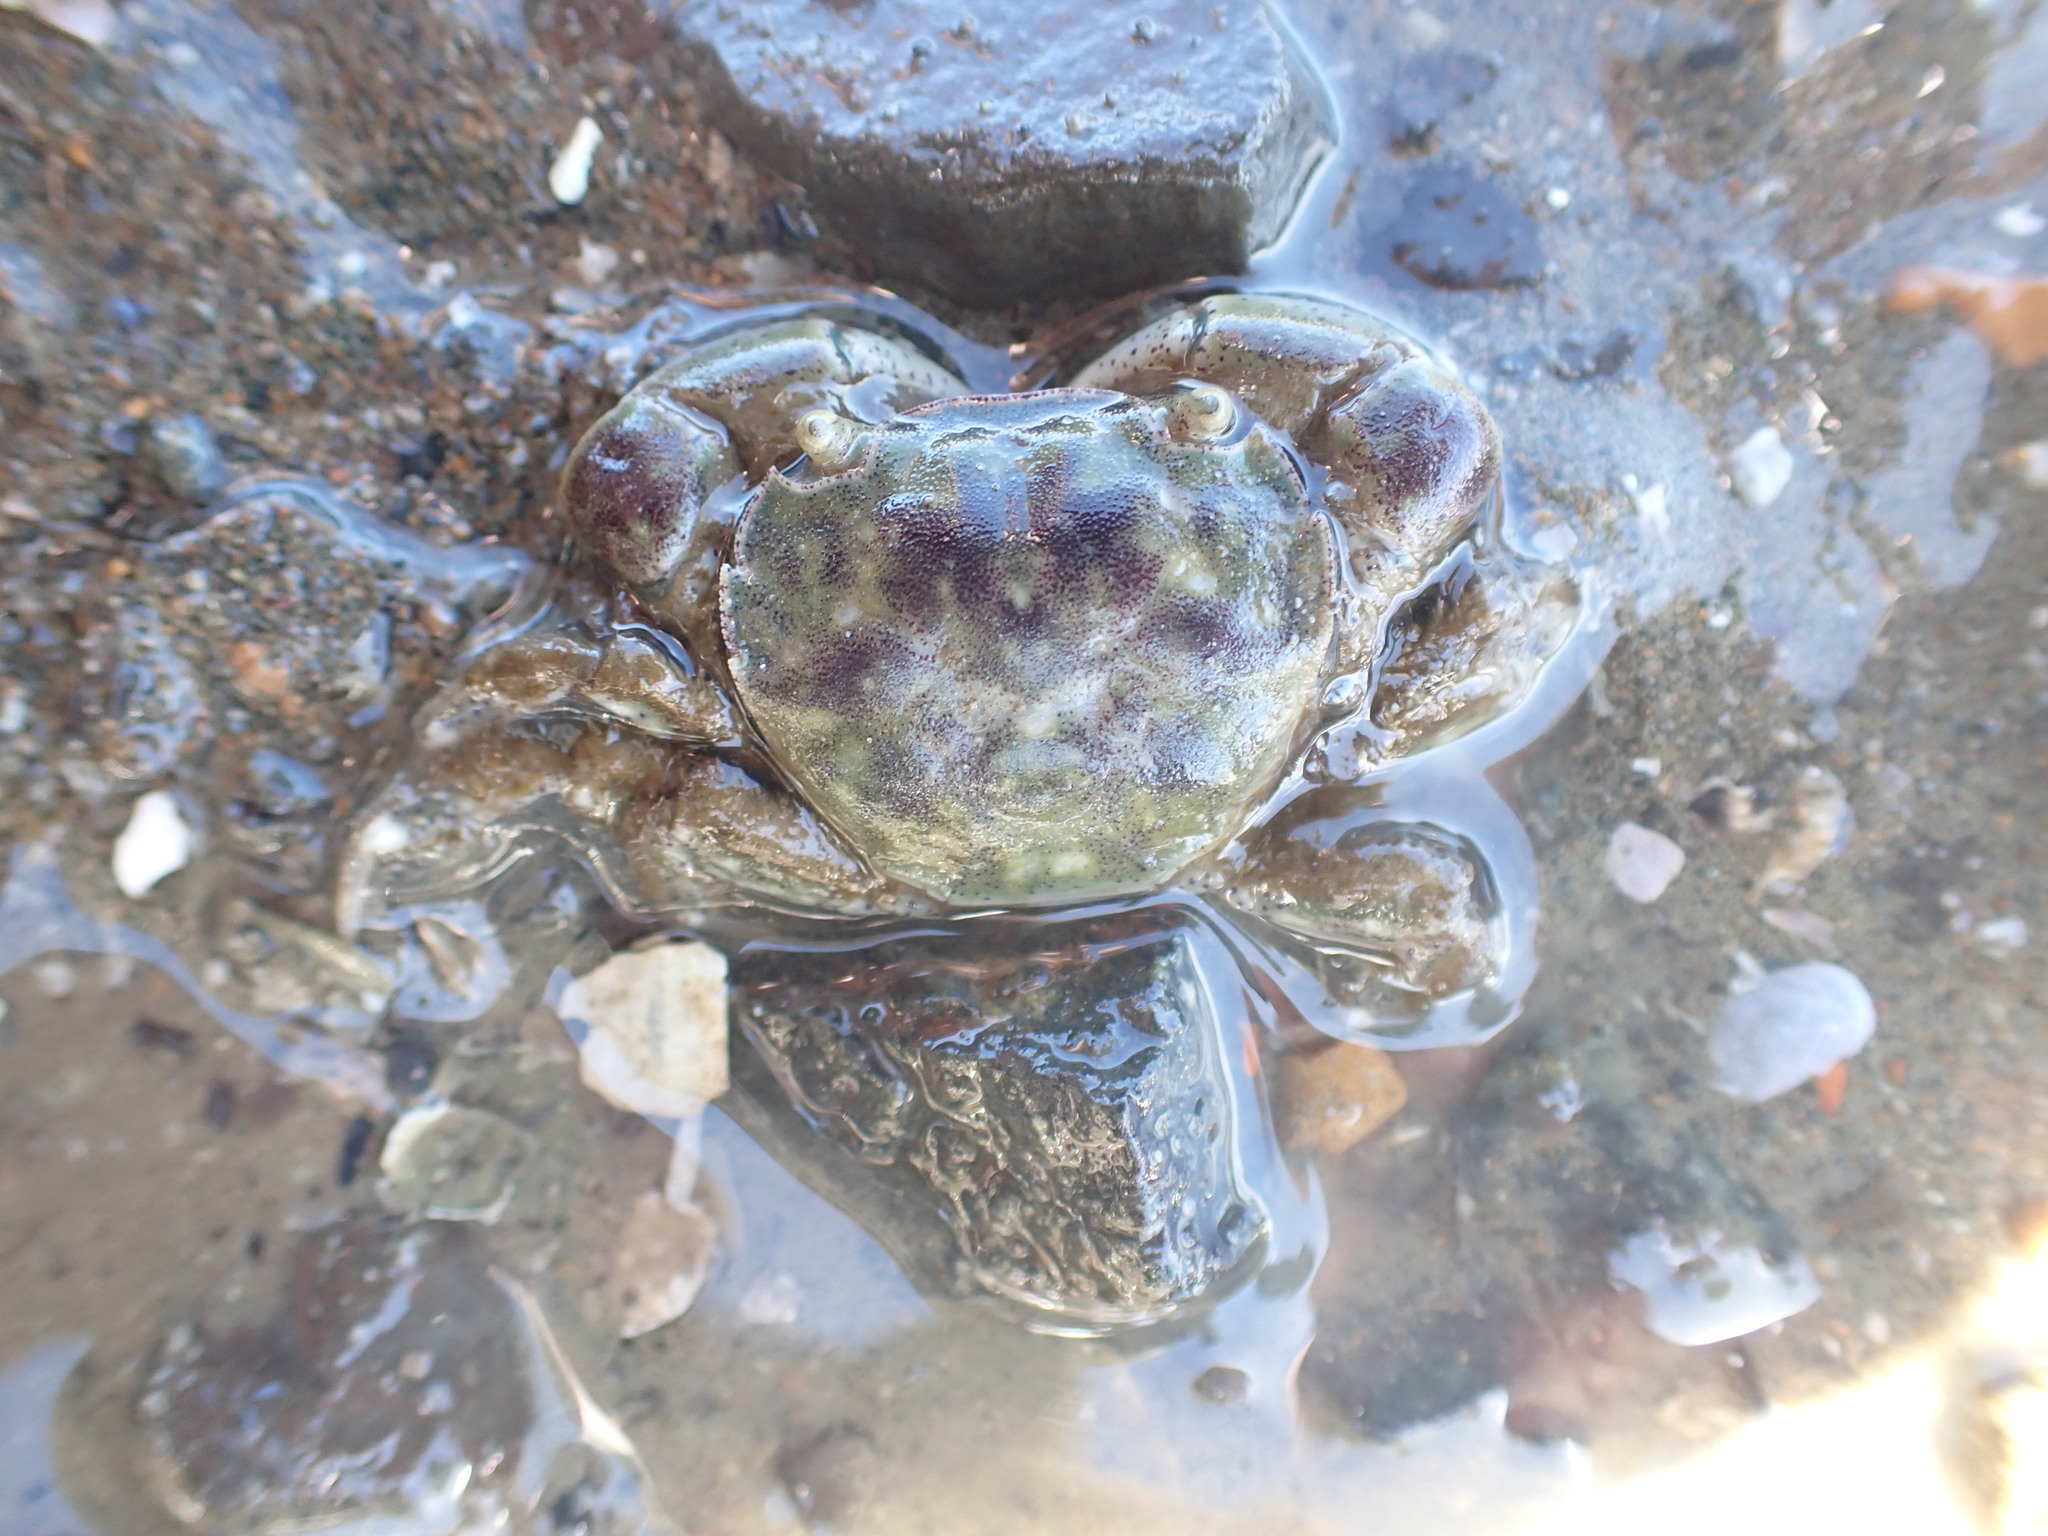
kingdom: Animalia
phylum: Arthropoda
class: Malacostraca
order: Decapoda
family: Varunidae
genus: Hemigrapsus
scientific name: Hemigrapsus crenulatus
